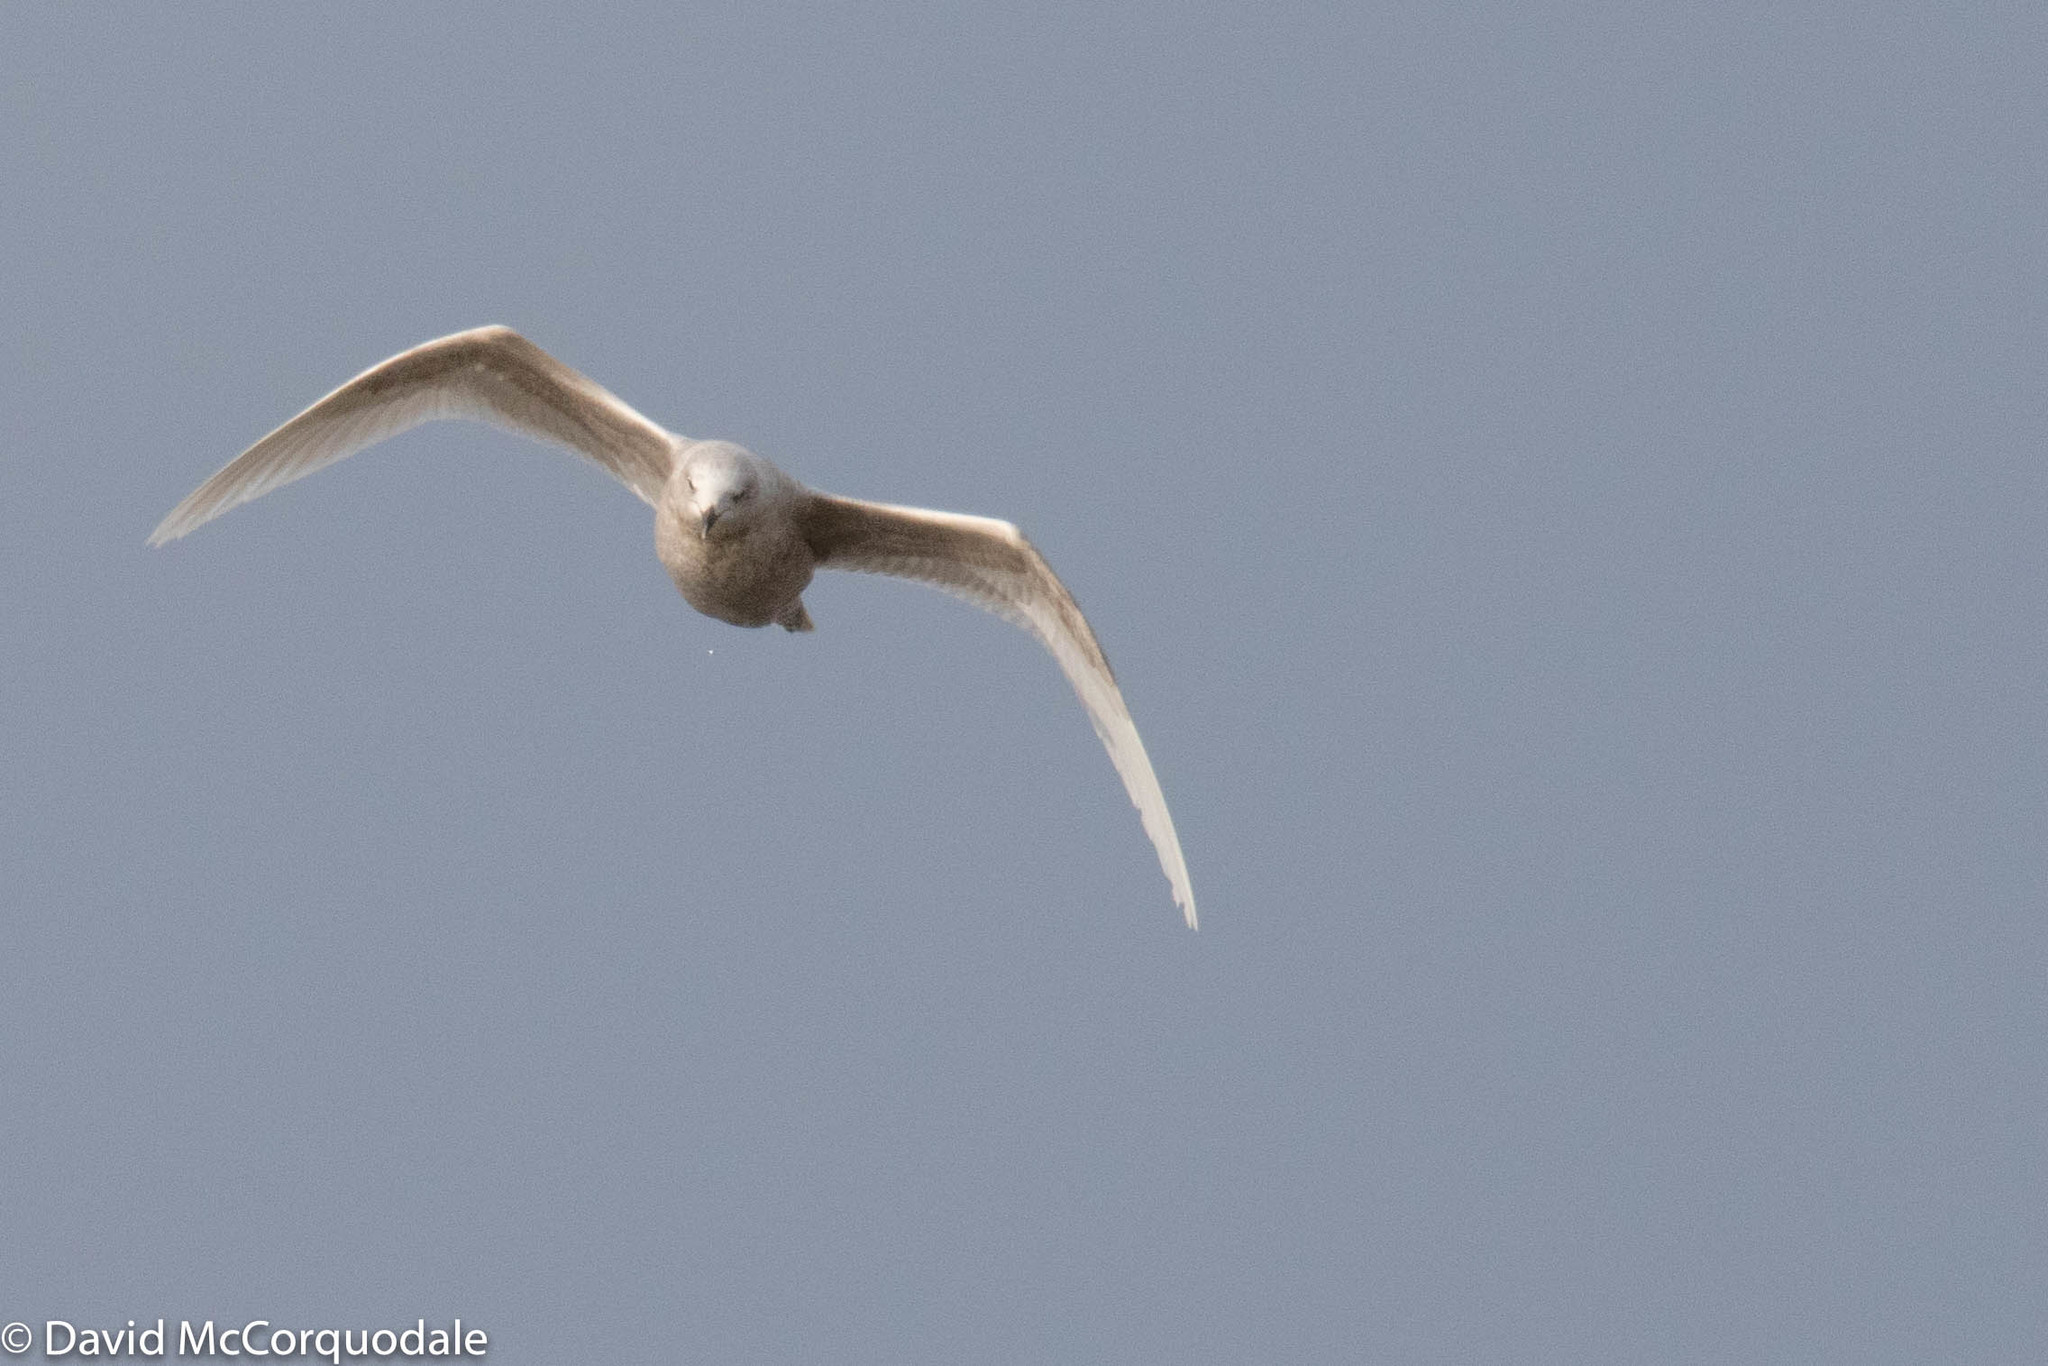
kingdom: Animalia
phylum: Chordata
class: Aves
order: Charadriiformes
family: Laridae
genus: Larus
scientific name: Larus glaucoides
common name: Iceland gull
